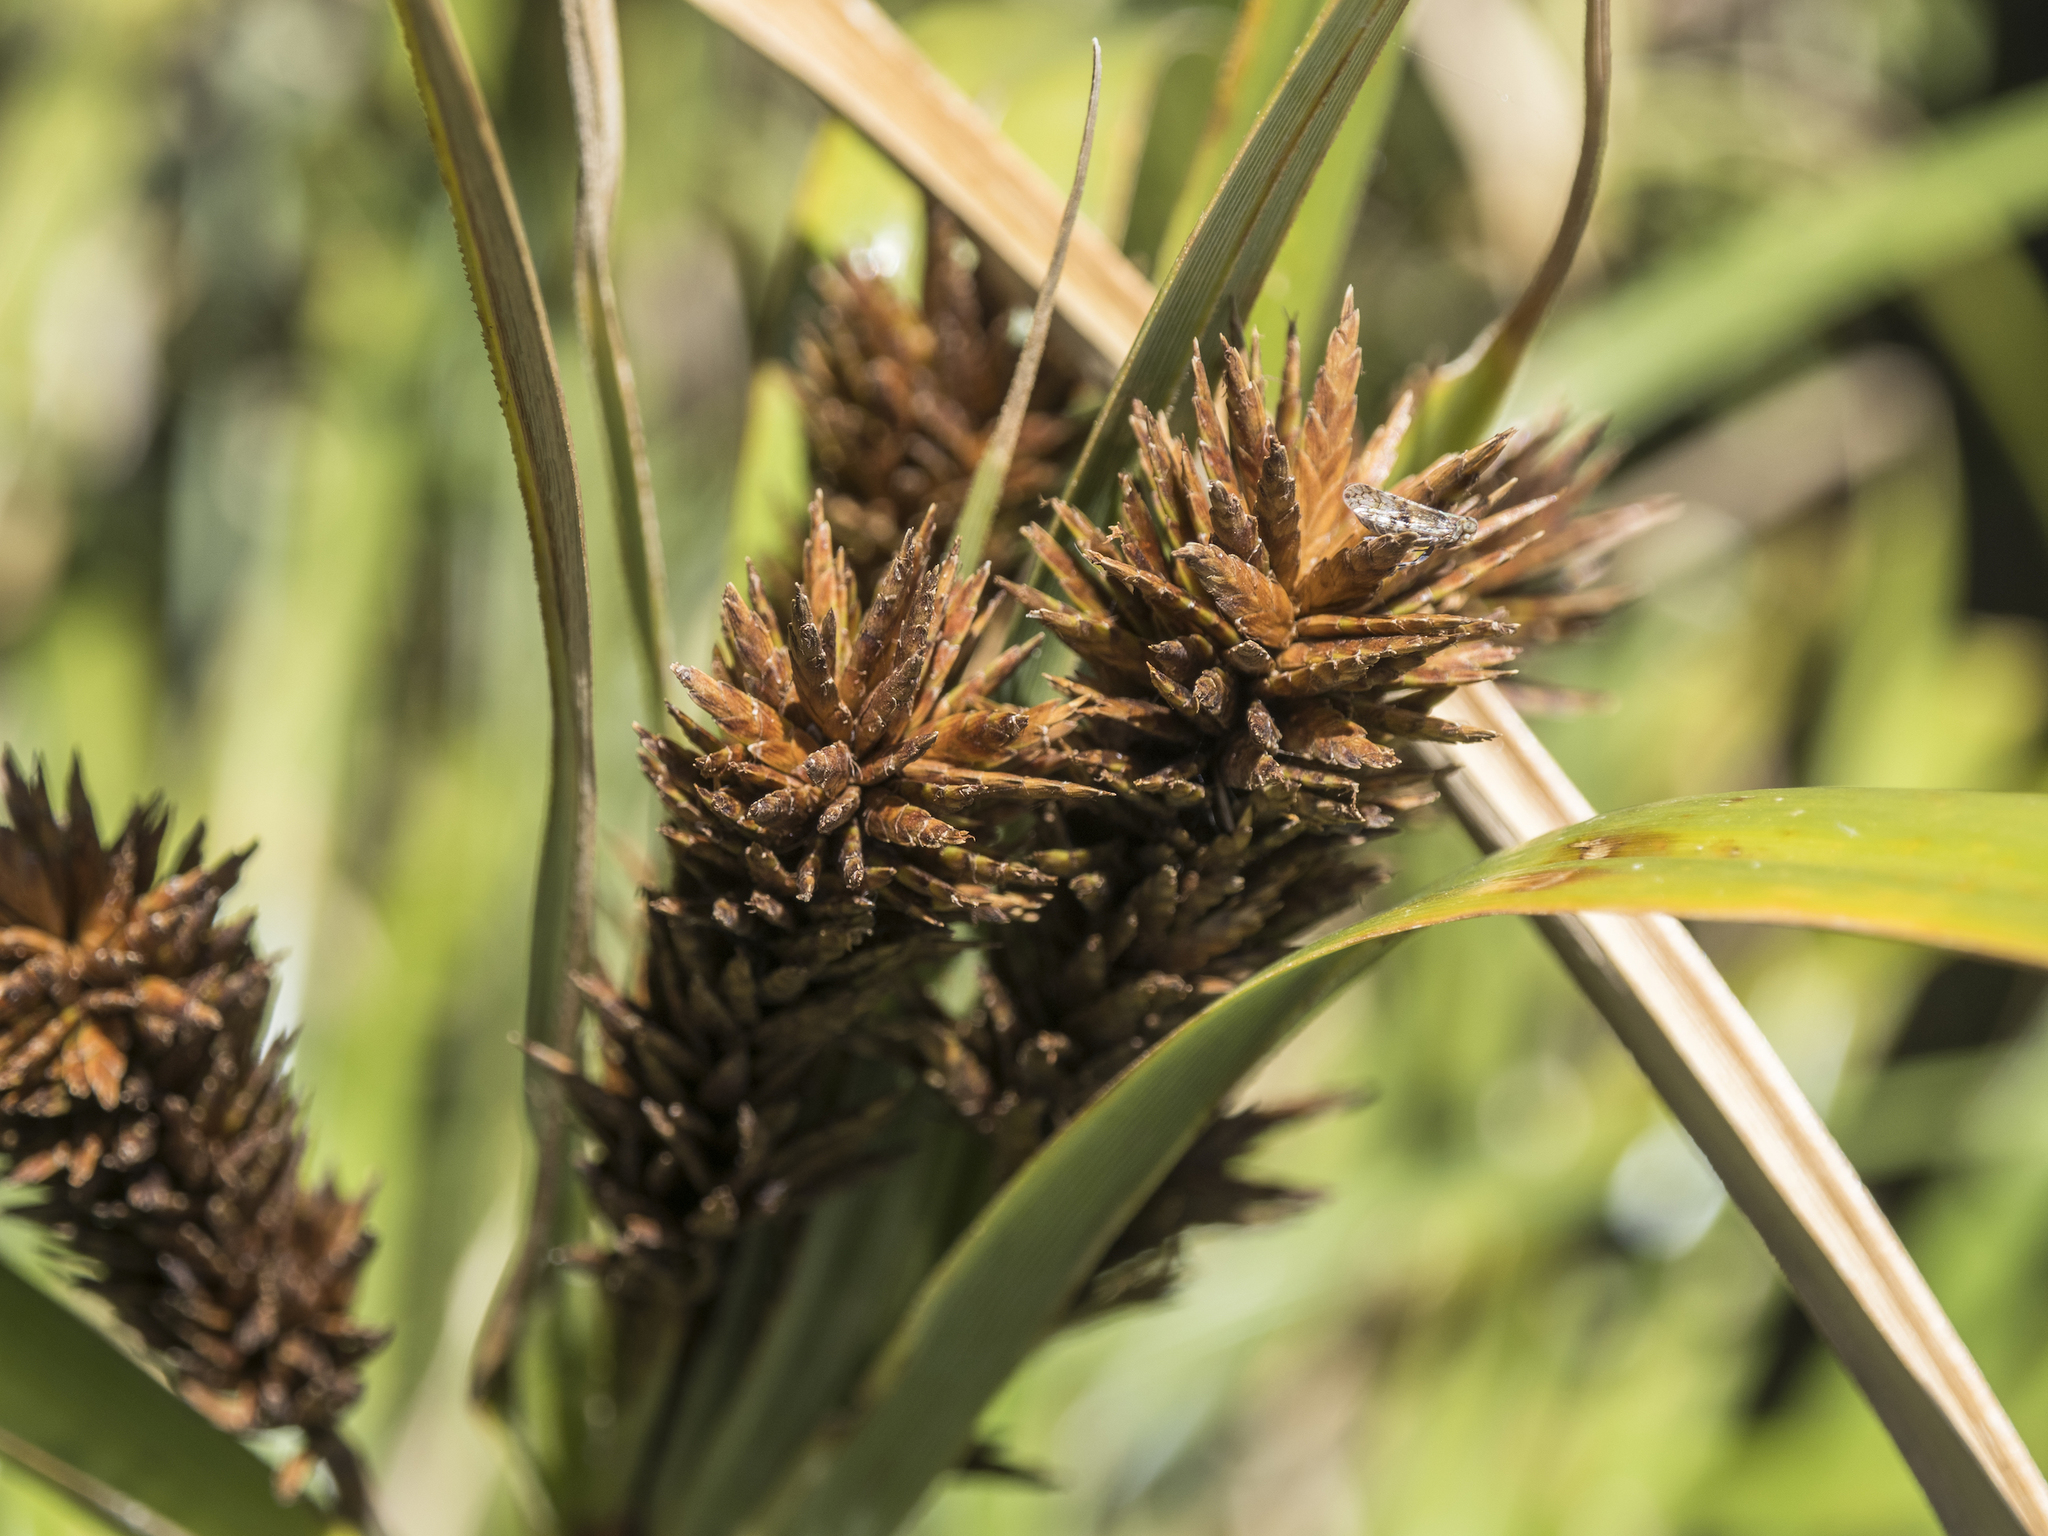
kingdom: Plantae
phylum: Tracheophyta
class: Liliopsida
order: Poales
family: Cyperaceae
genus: Cyperus
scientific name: Cyperus ustulatus
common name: Giant umbrella-sedge
